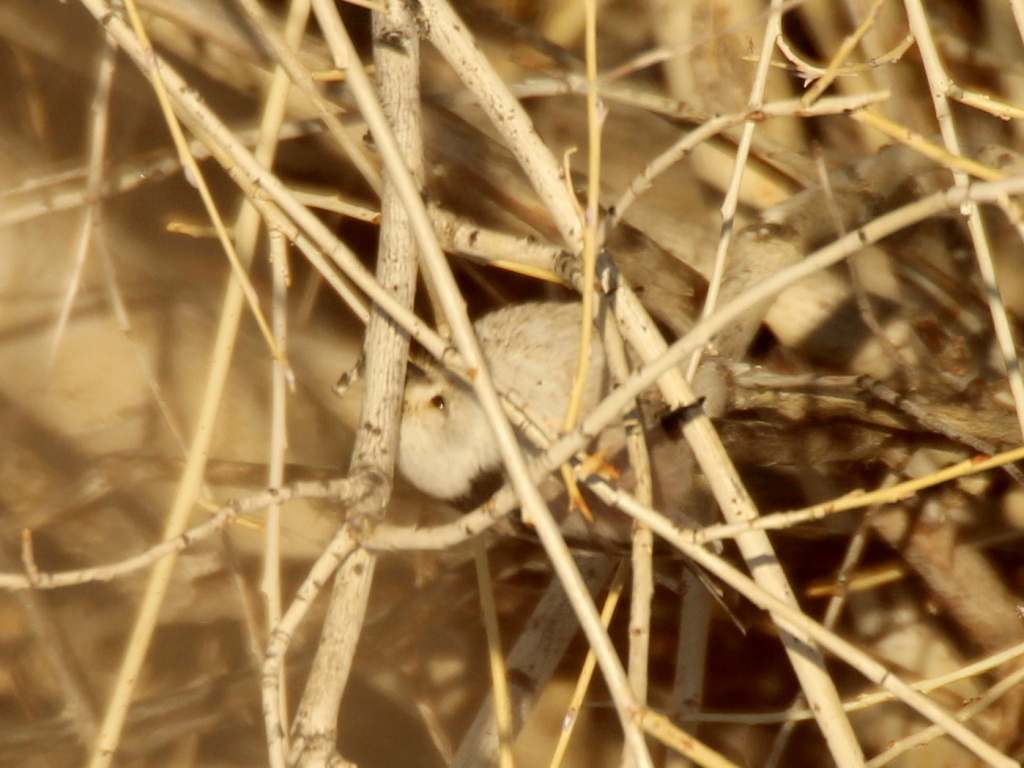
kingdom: Animalia
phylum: Chordata
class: Aves
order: Passeriformes
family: Aegithalidae
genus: Aegithalos
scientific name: Aegithalos caudatus
